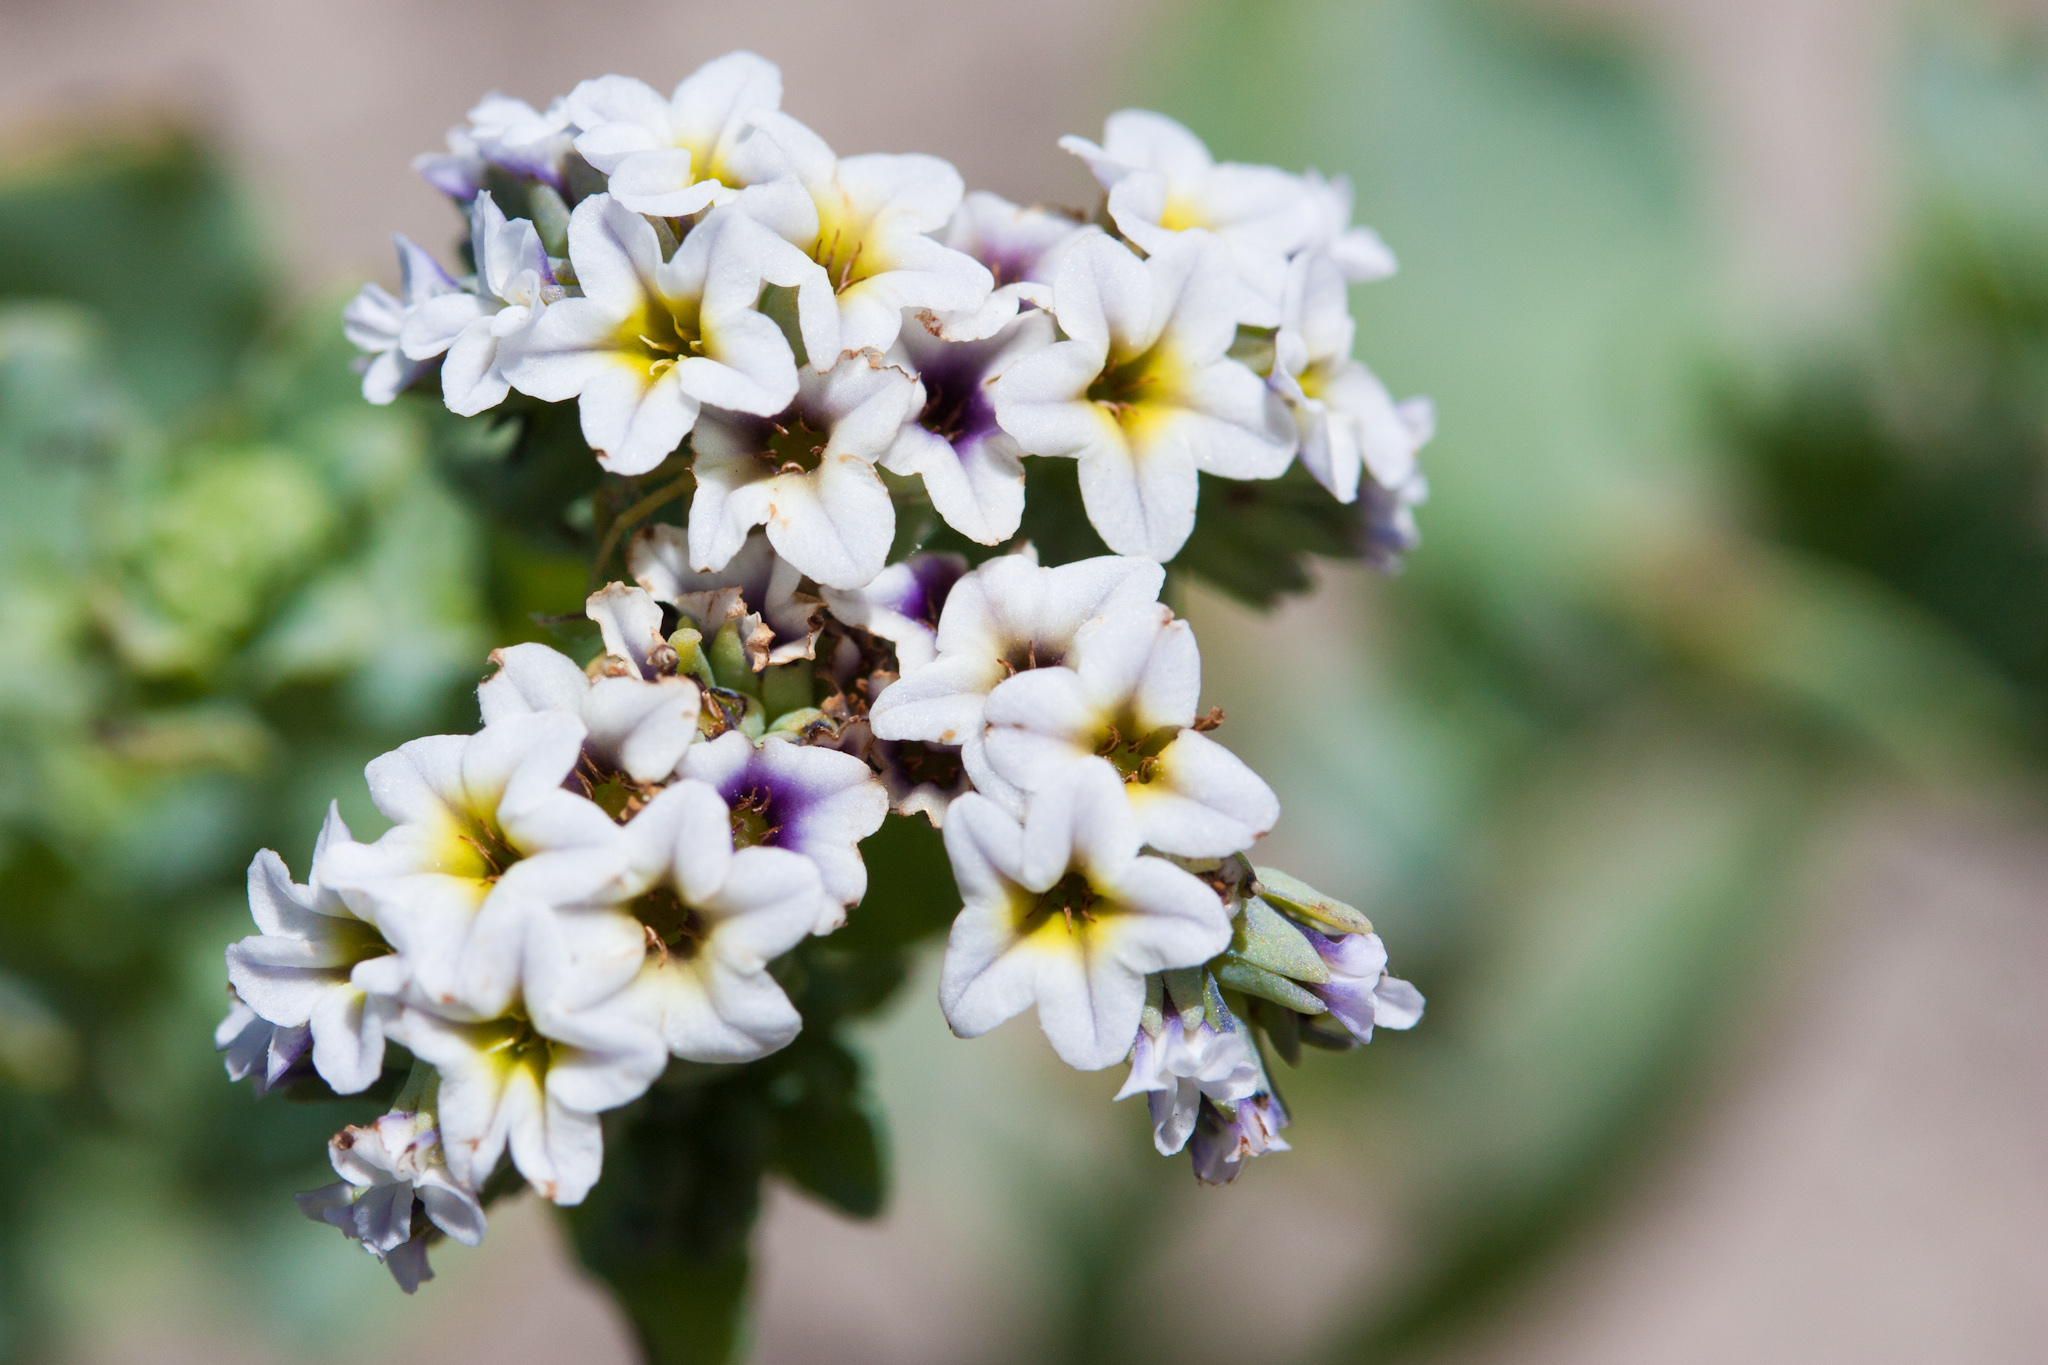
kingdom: Plantae
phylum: Tracheophyta
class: Magnoliopsida
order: Boraginales
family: Heliotropiaceae
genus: Heliotropium
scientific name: Heliotropium curassavicum
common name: Seaside heliotrope
